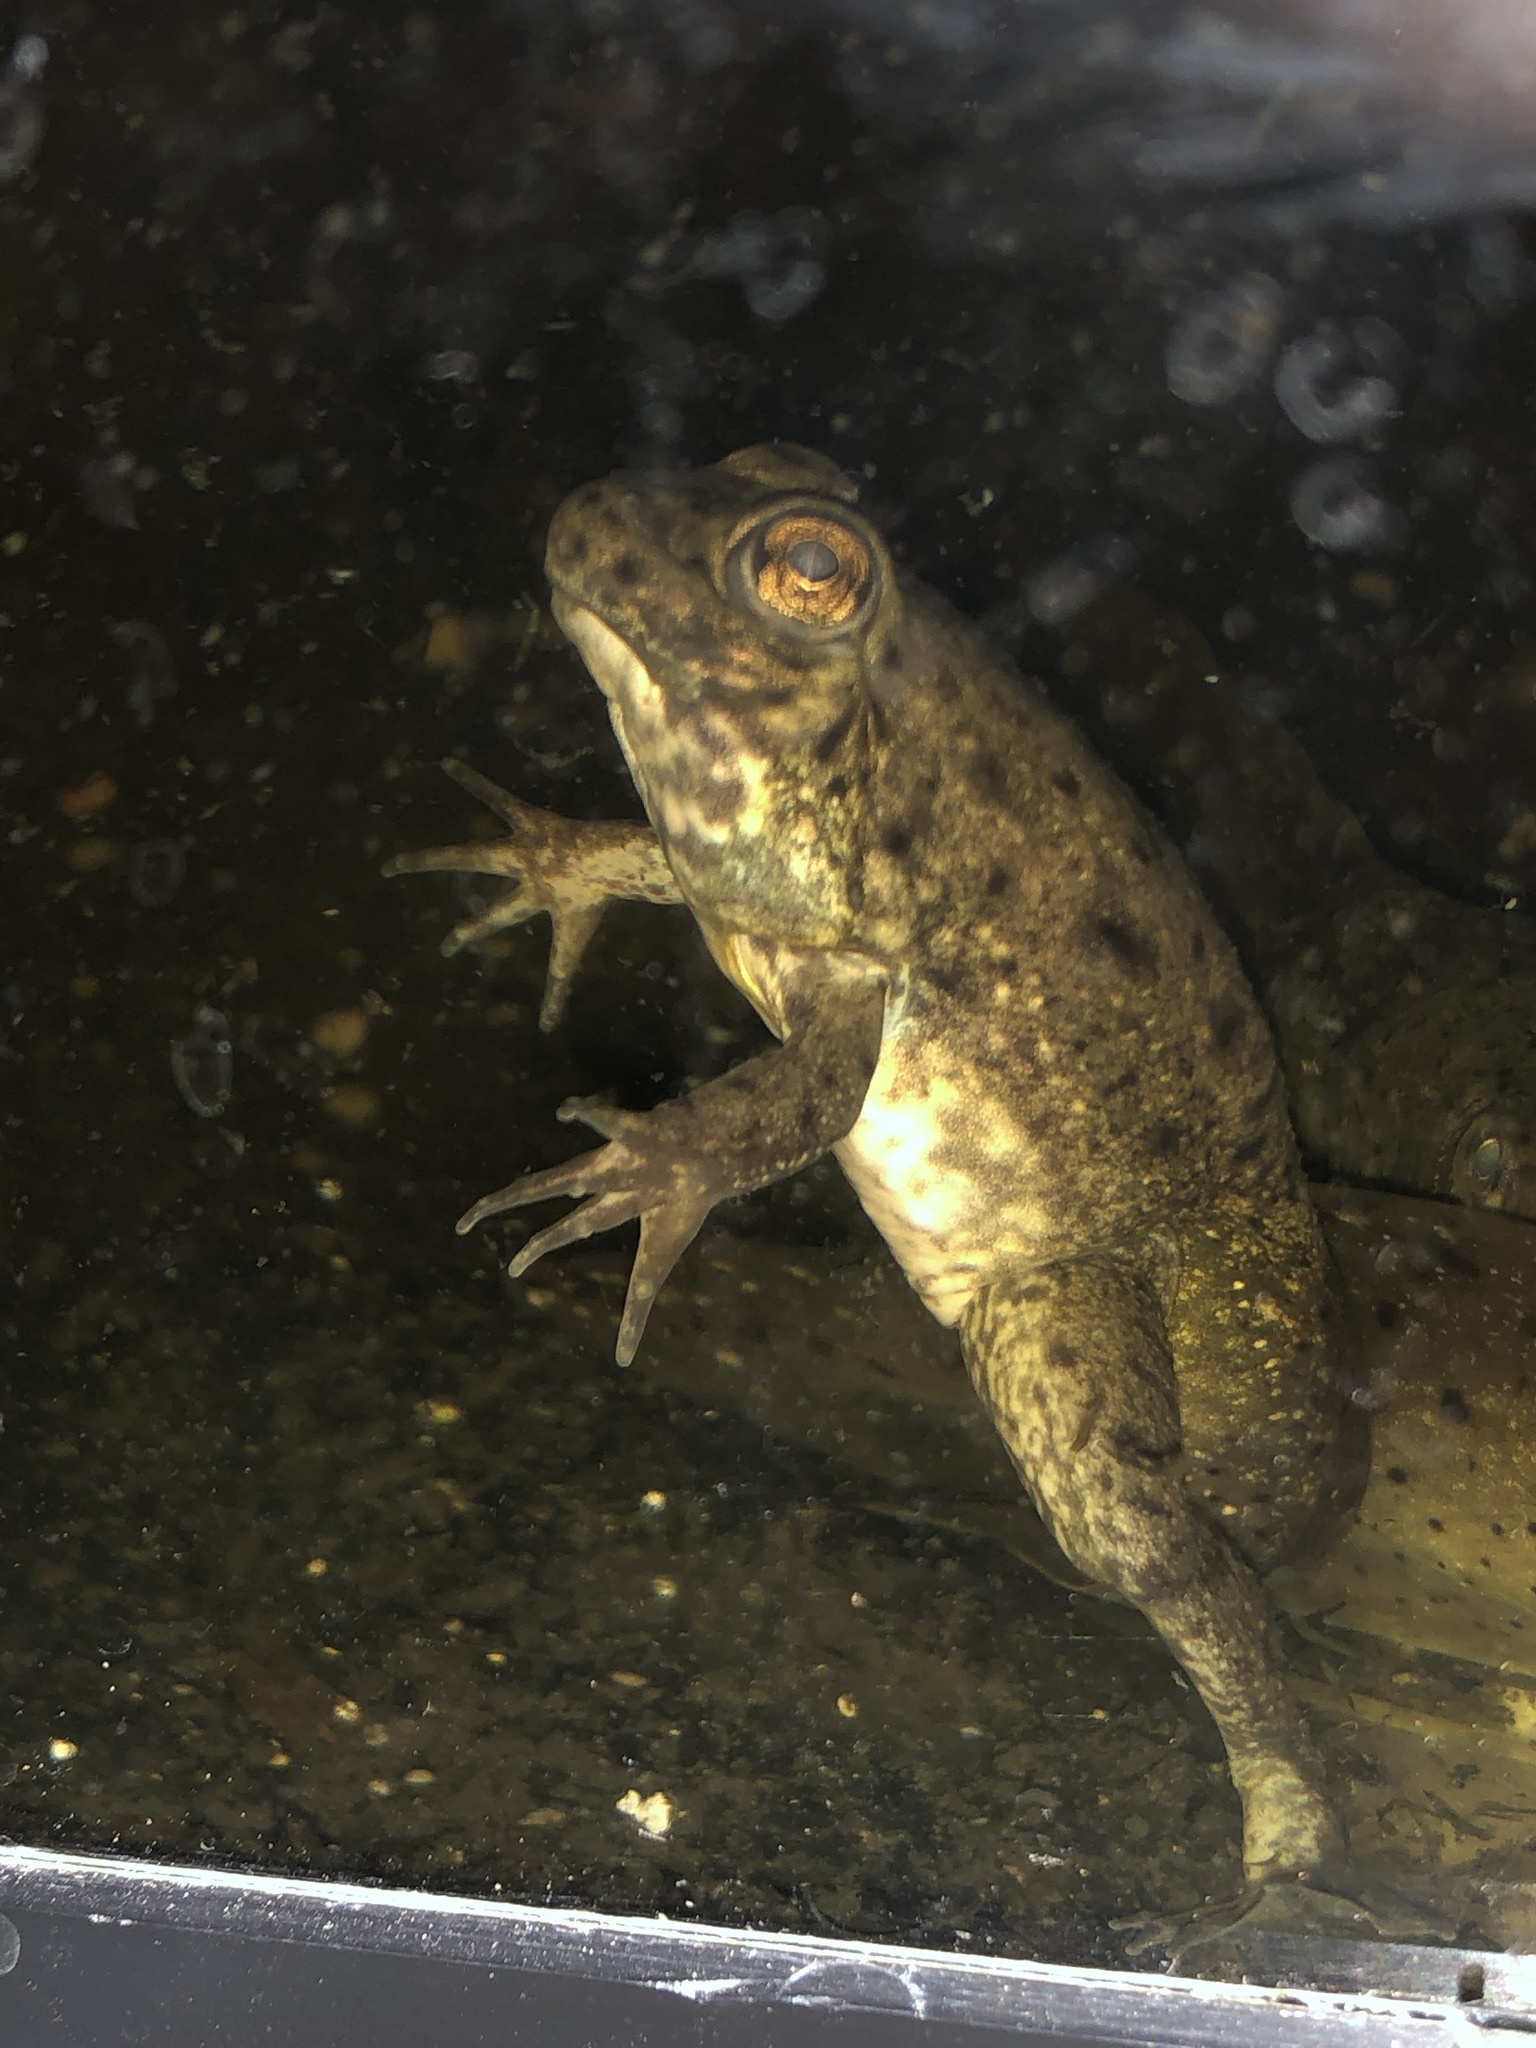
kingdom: Animalia
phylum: Chordata
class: Amphibia
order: Anura
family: Ranidae
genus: Lithobates
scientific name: Lithobates catesbeianus
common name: American bullfrog
